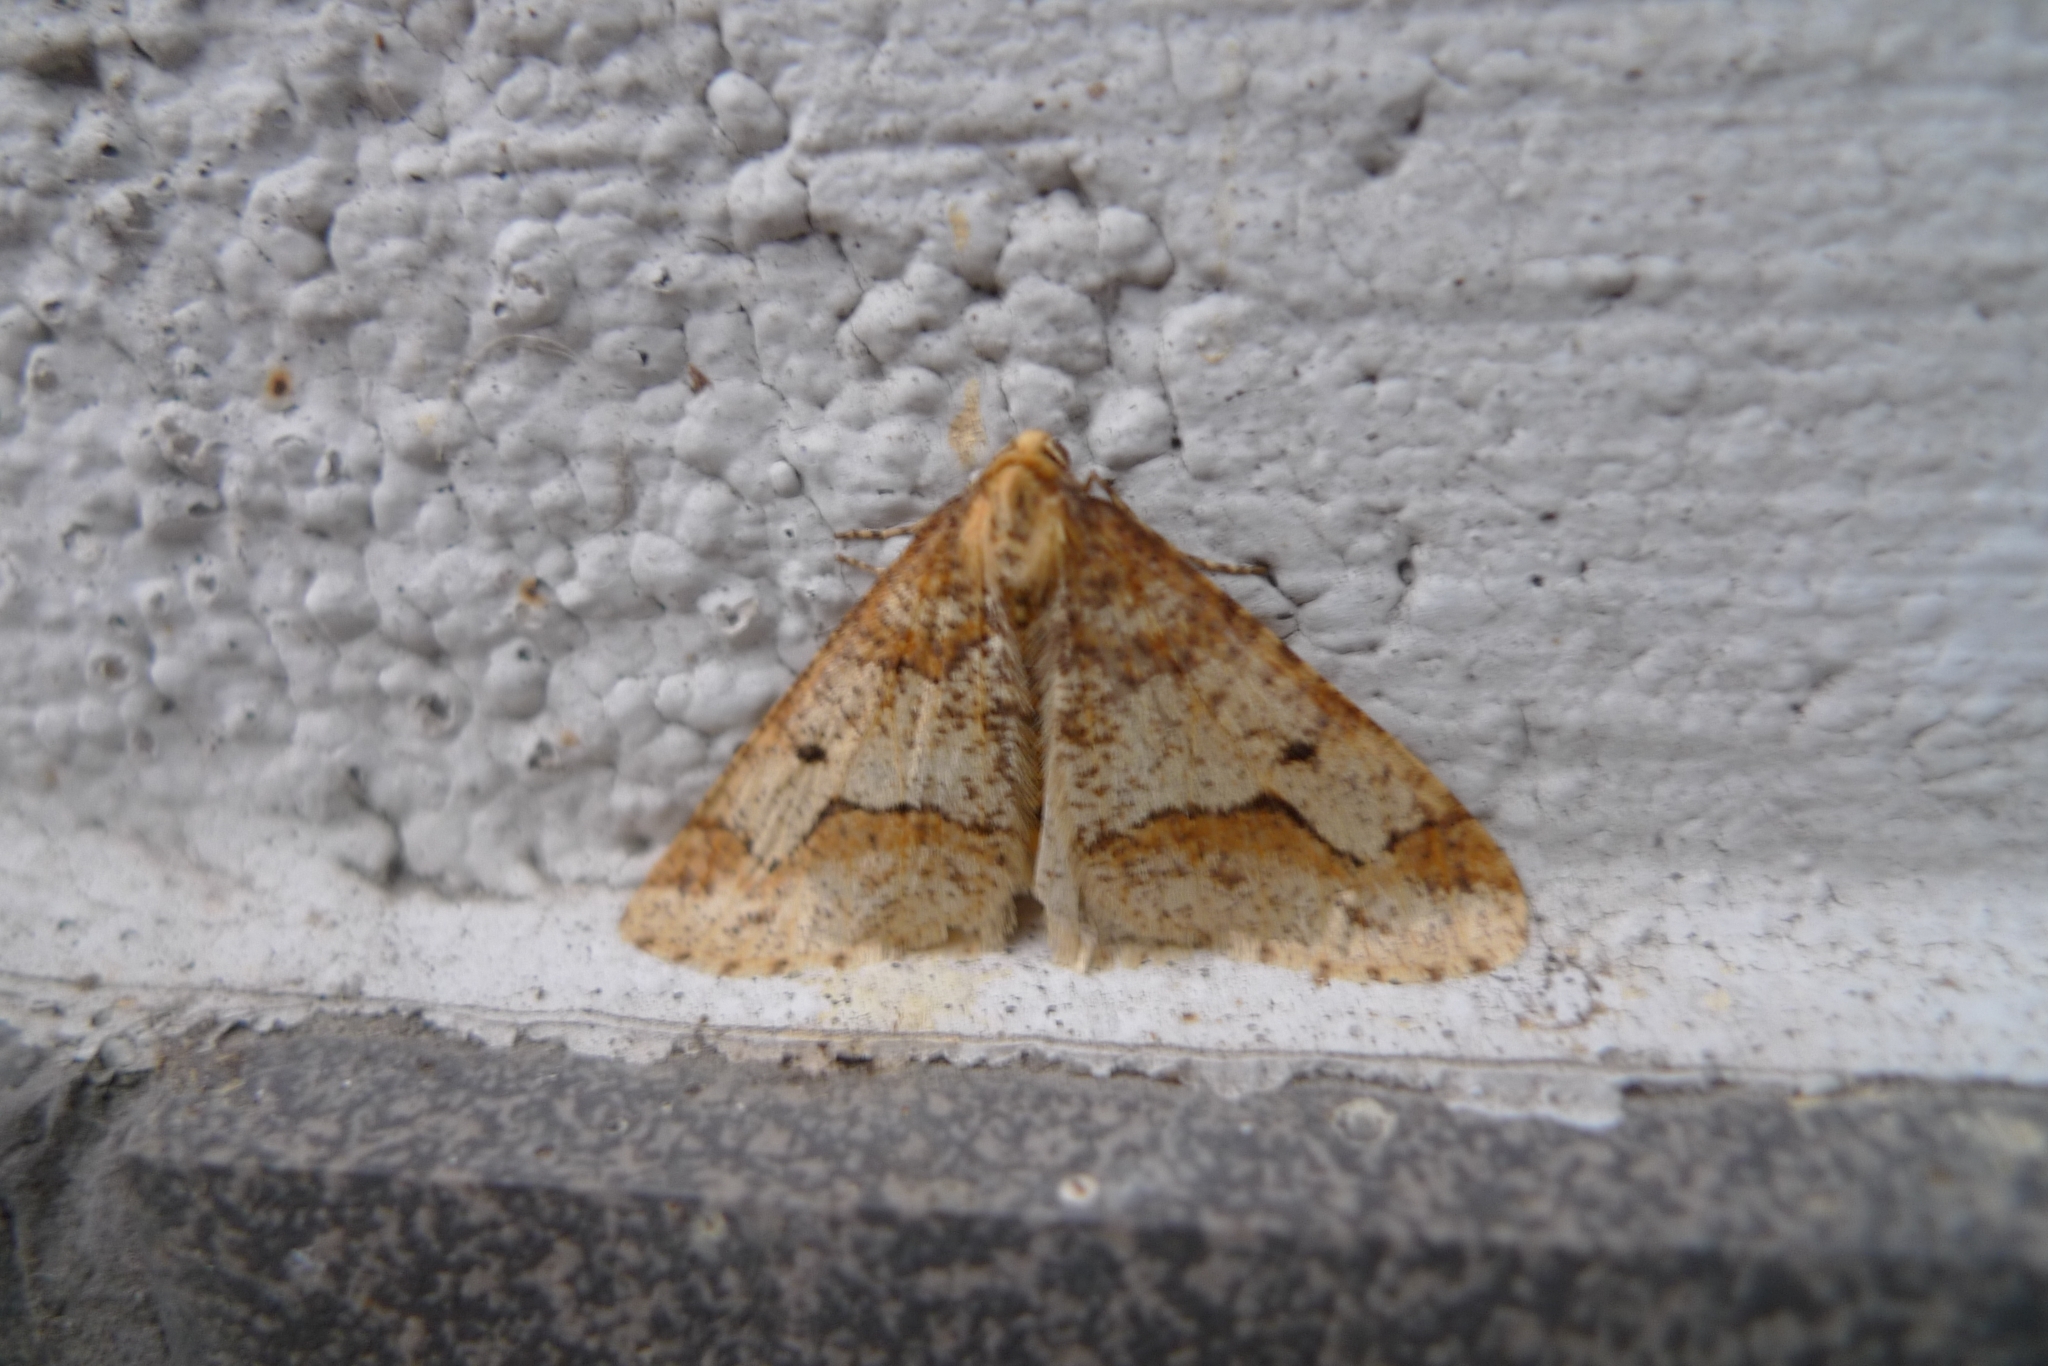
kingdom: Animalia
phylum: Arthropoda
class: Insecta
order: Lepidoptera
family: Geometridae
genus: Erannis
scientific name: Erannis defoliaria
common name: Mottled umber
